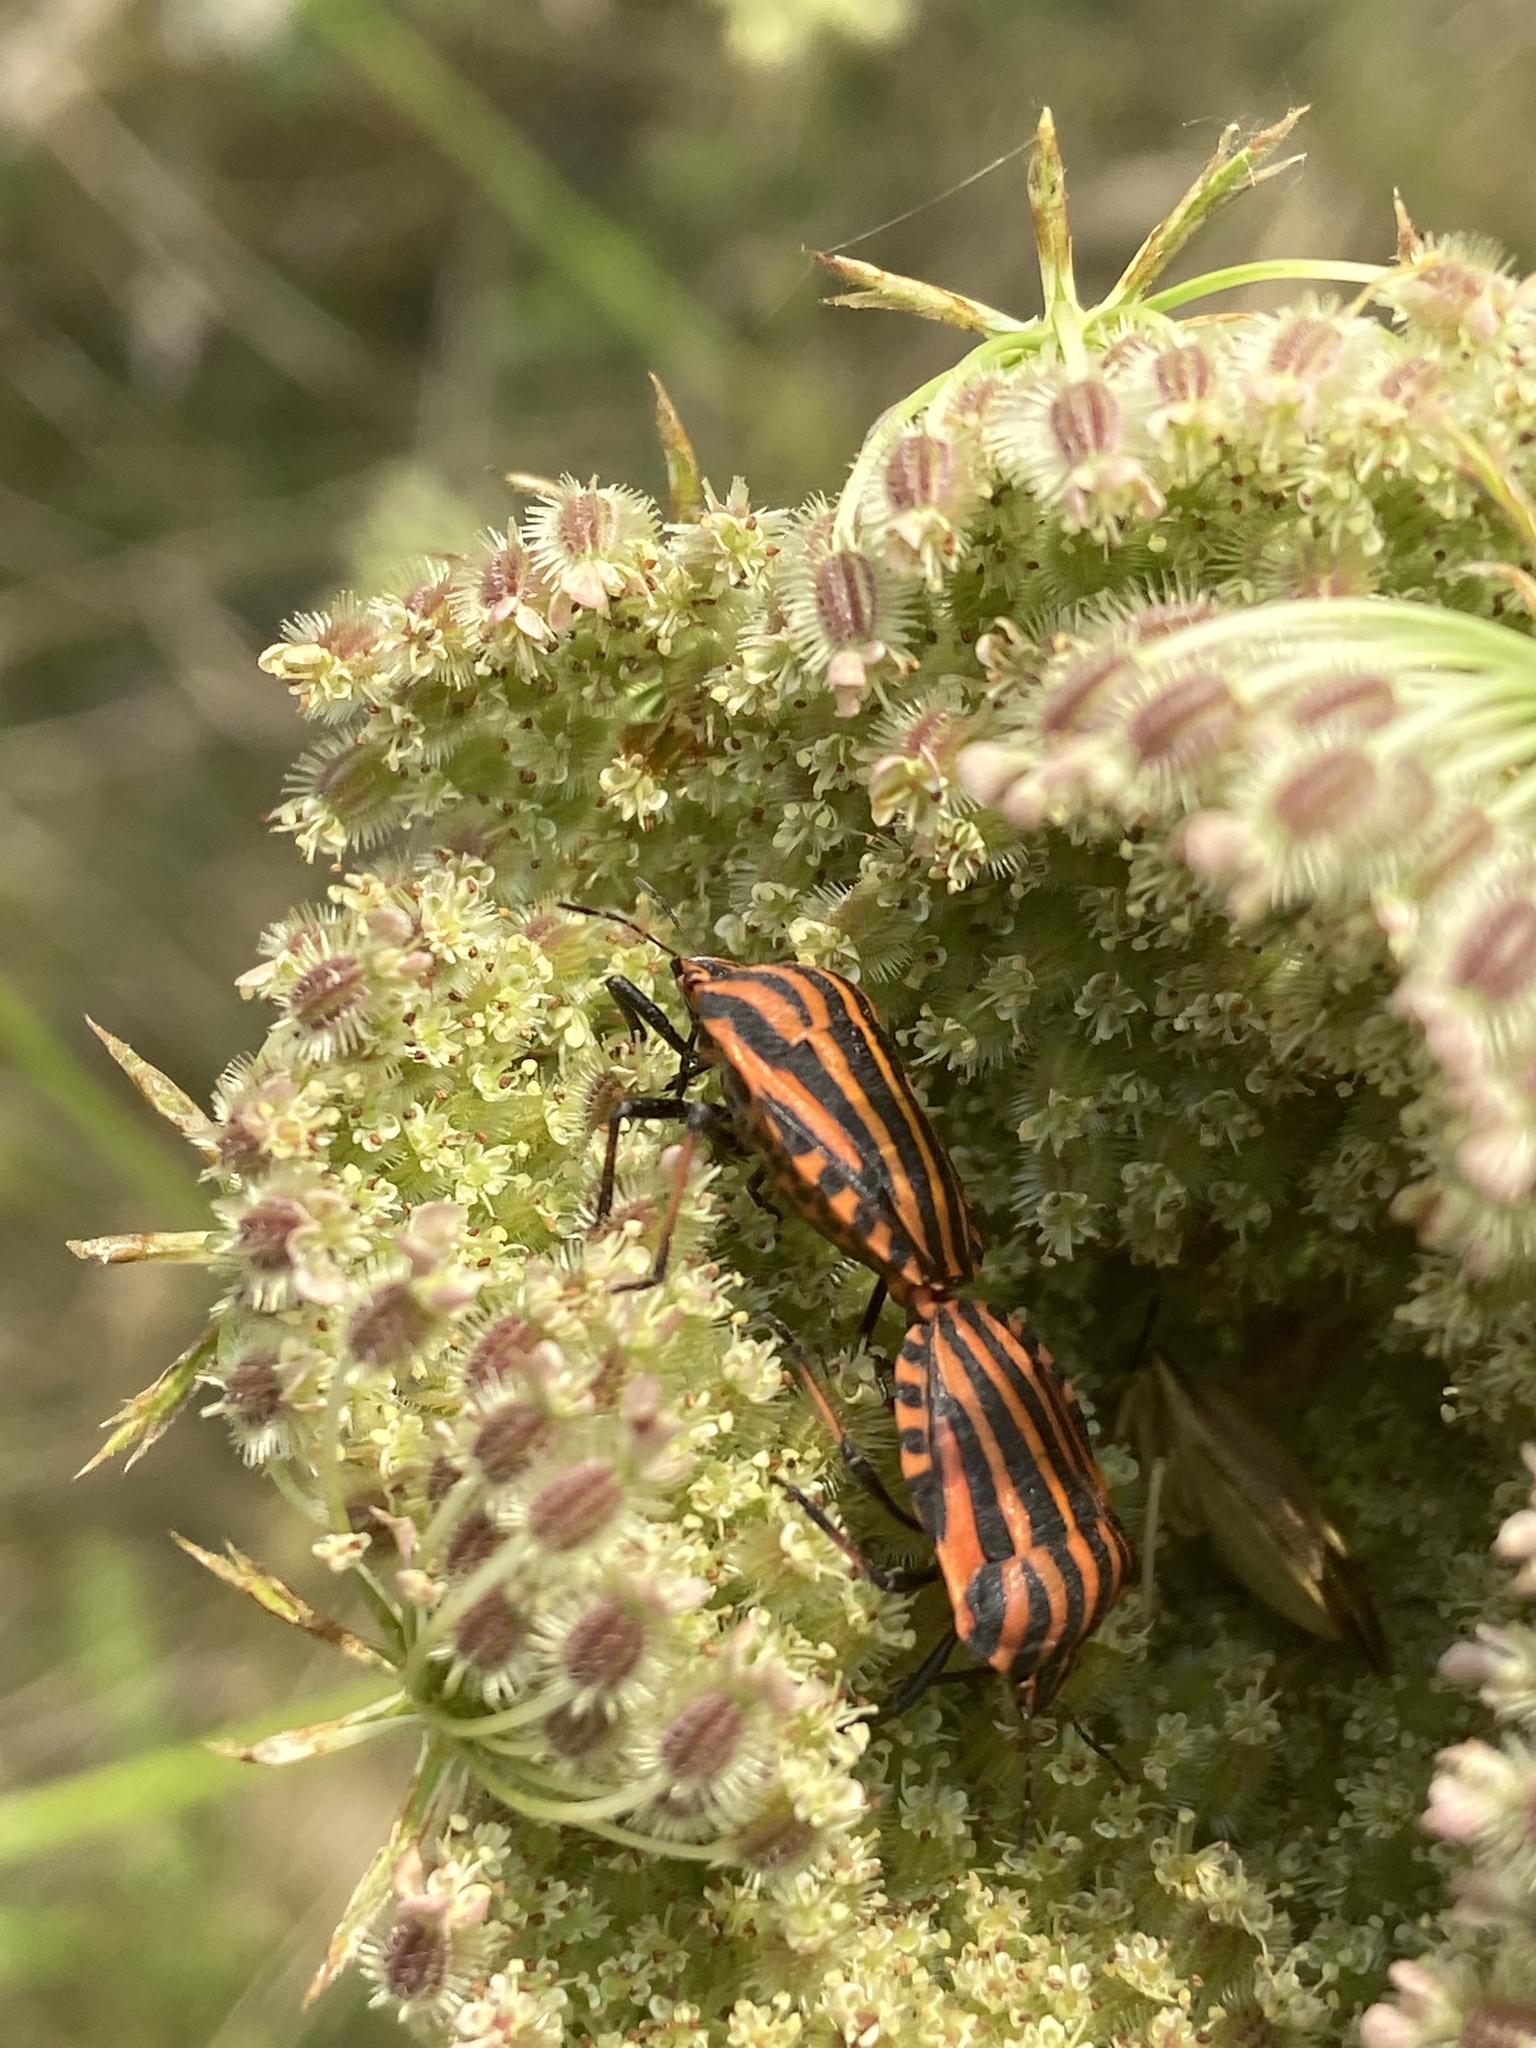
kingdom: Animalia
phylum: Arthropoda
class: Insecta
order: Hemiptera
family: Pentatomidae
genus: Graphosoma
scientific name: Graphosoma italicum
